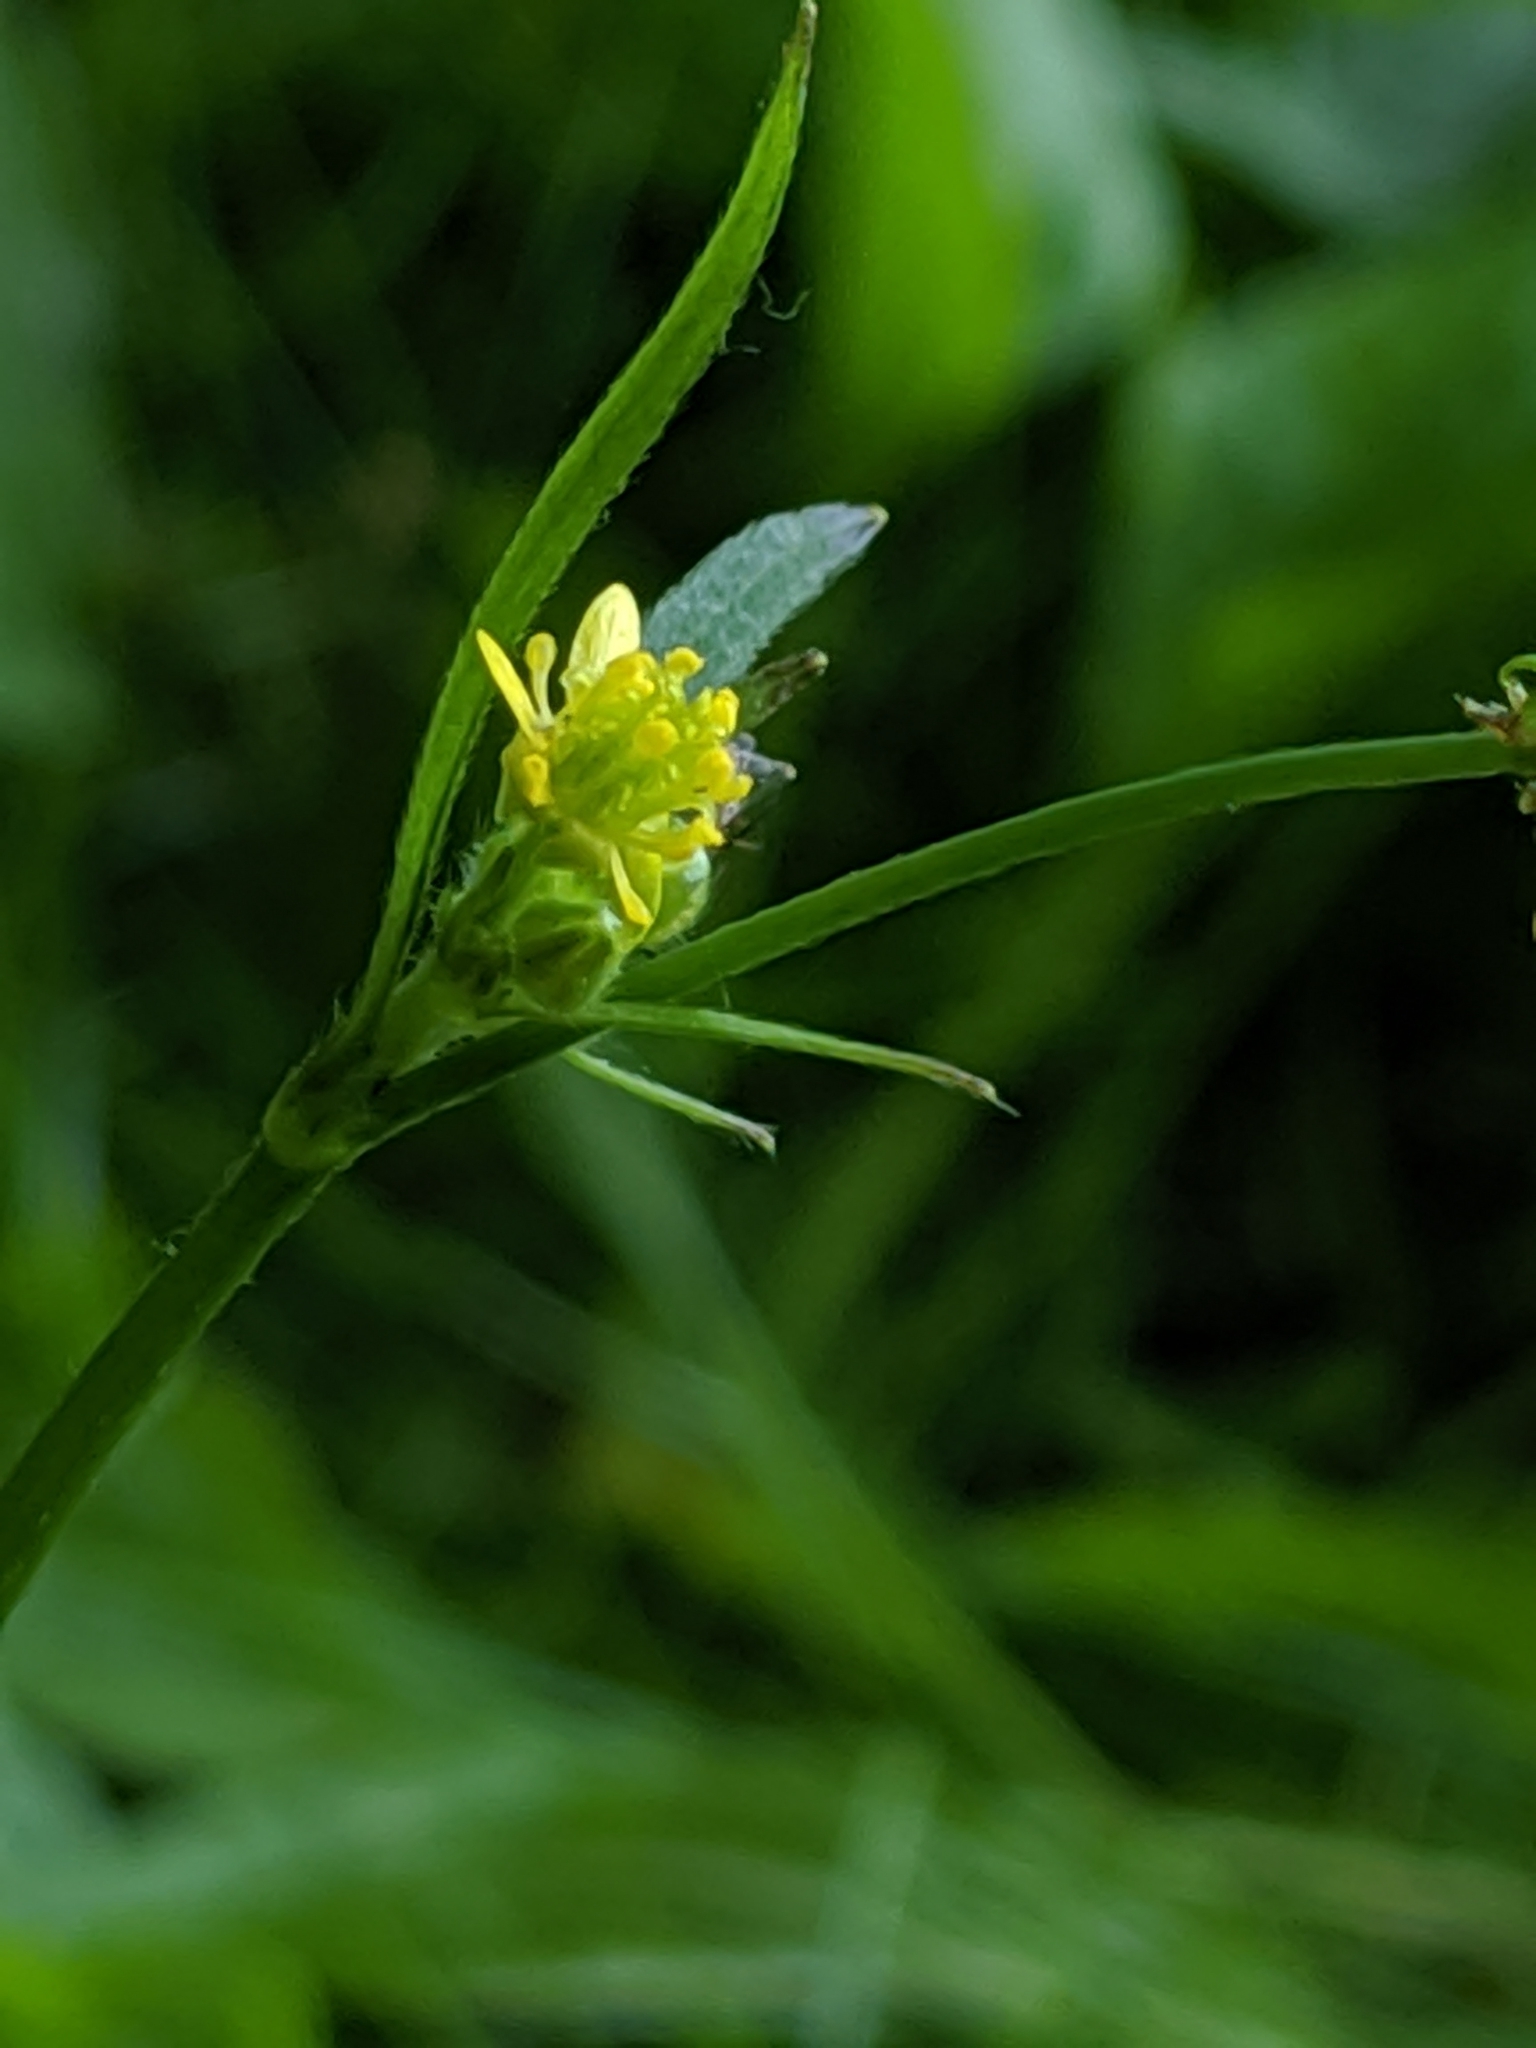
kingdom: Plantae
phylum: Tracheophyta
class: Magnoliopsida
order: Ranunculales
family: Ranunculaceae
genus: Ranunculus
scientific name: Ranunculus uncinatus
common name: Little buttercup
